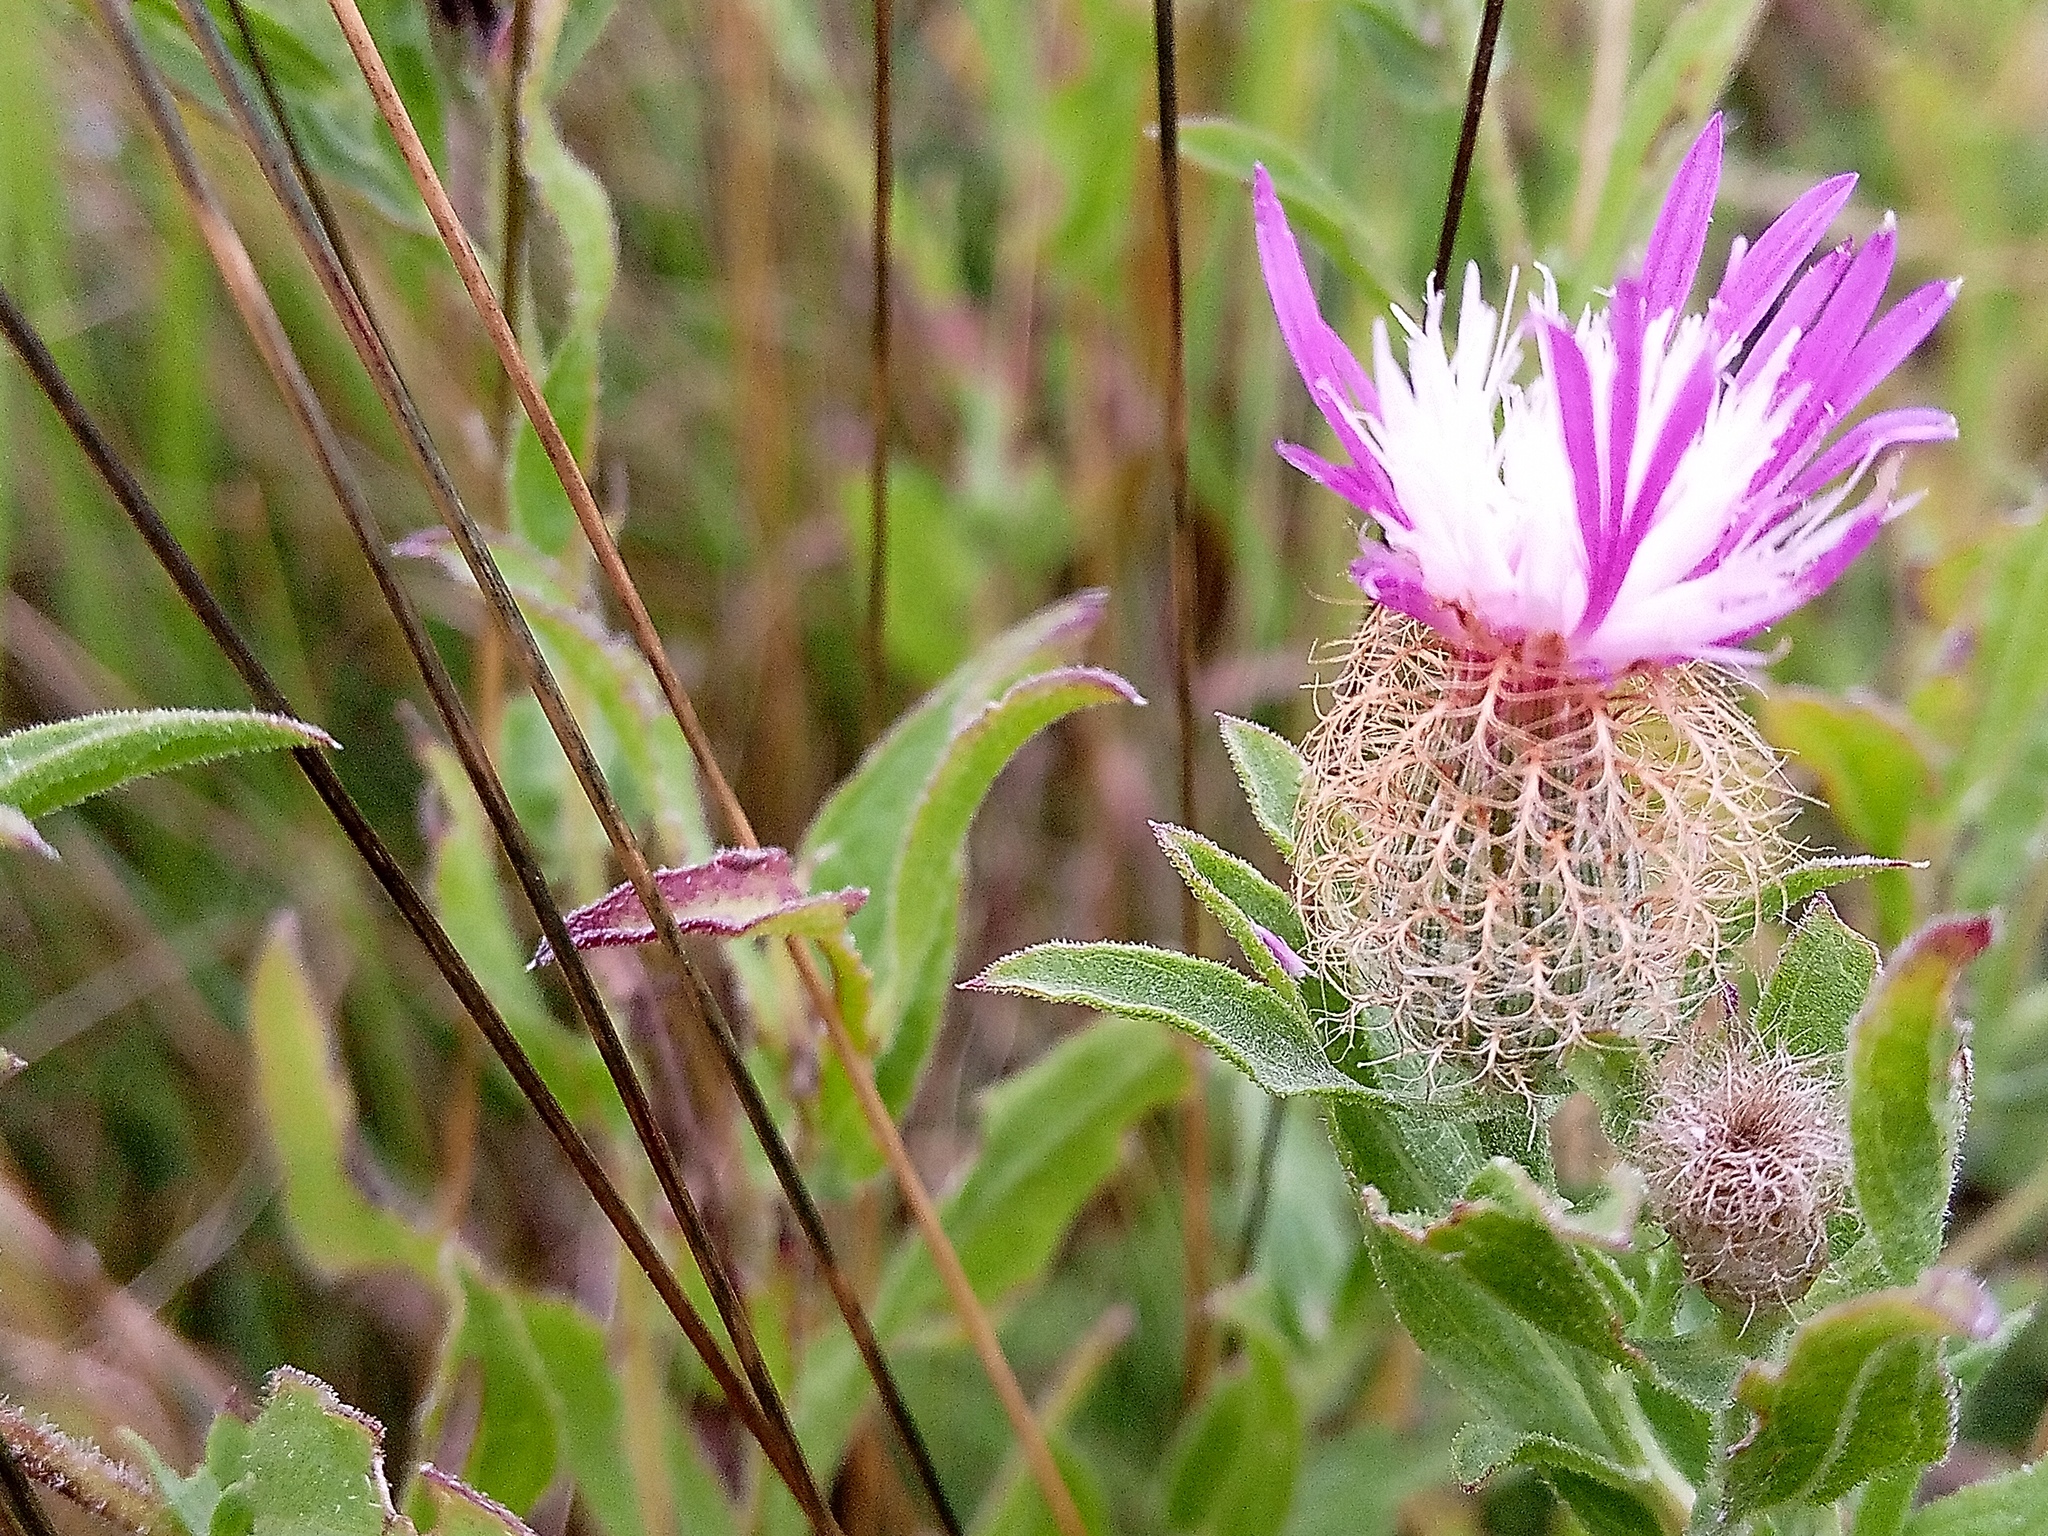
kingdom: Plantae
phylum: Tracheophyta
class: Magnoliopsida
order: Asterales
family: Asteraceae
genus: Centaurea
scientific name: Centaurea trichocephala
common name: Feather-head knapweed
